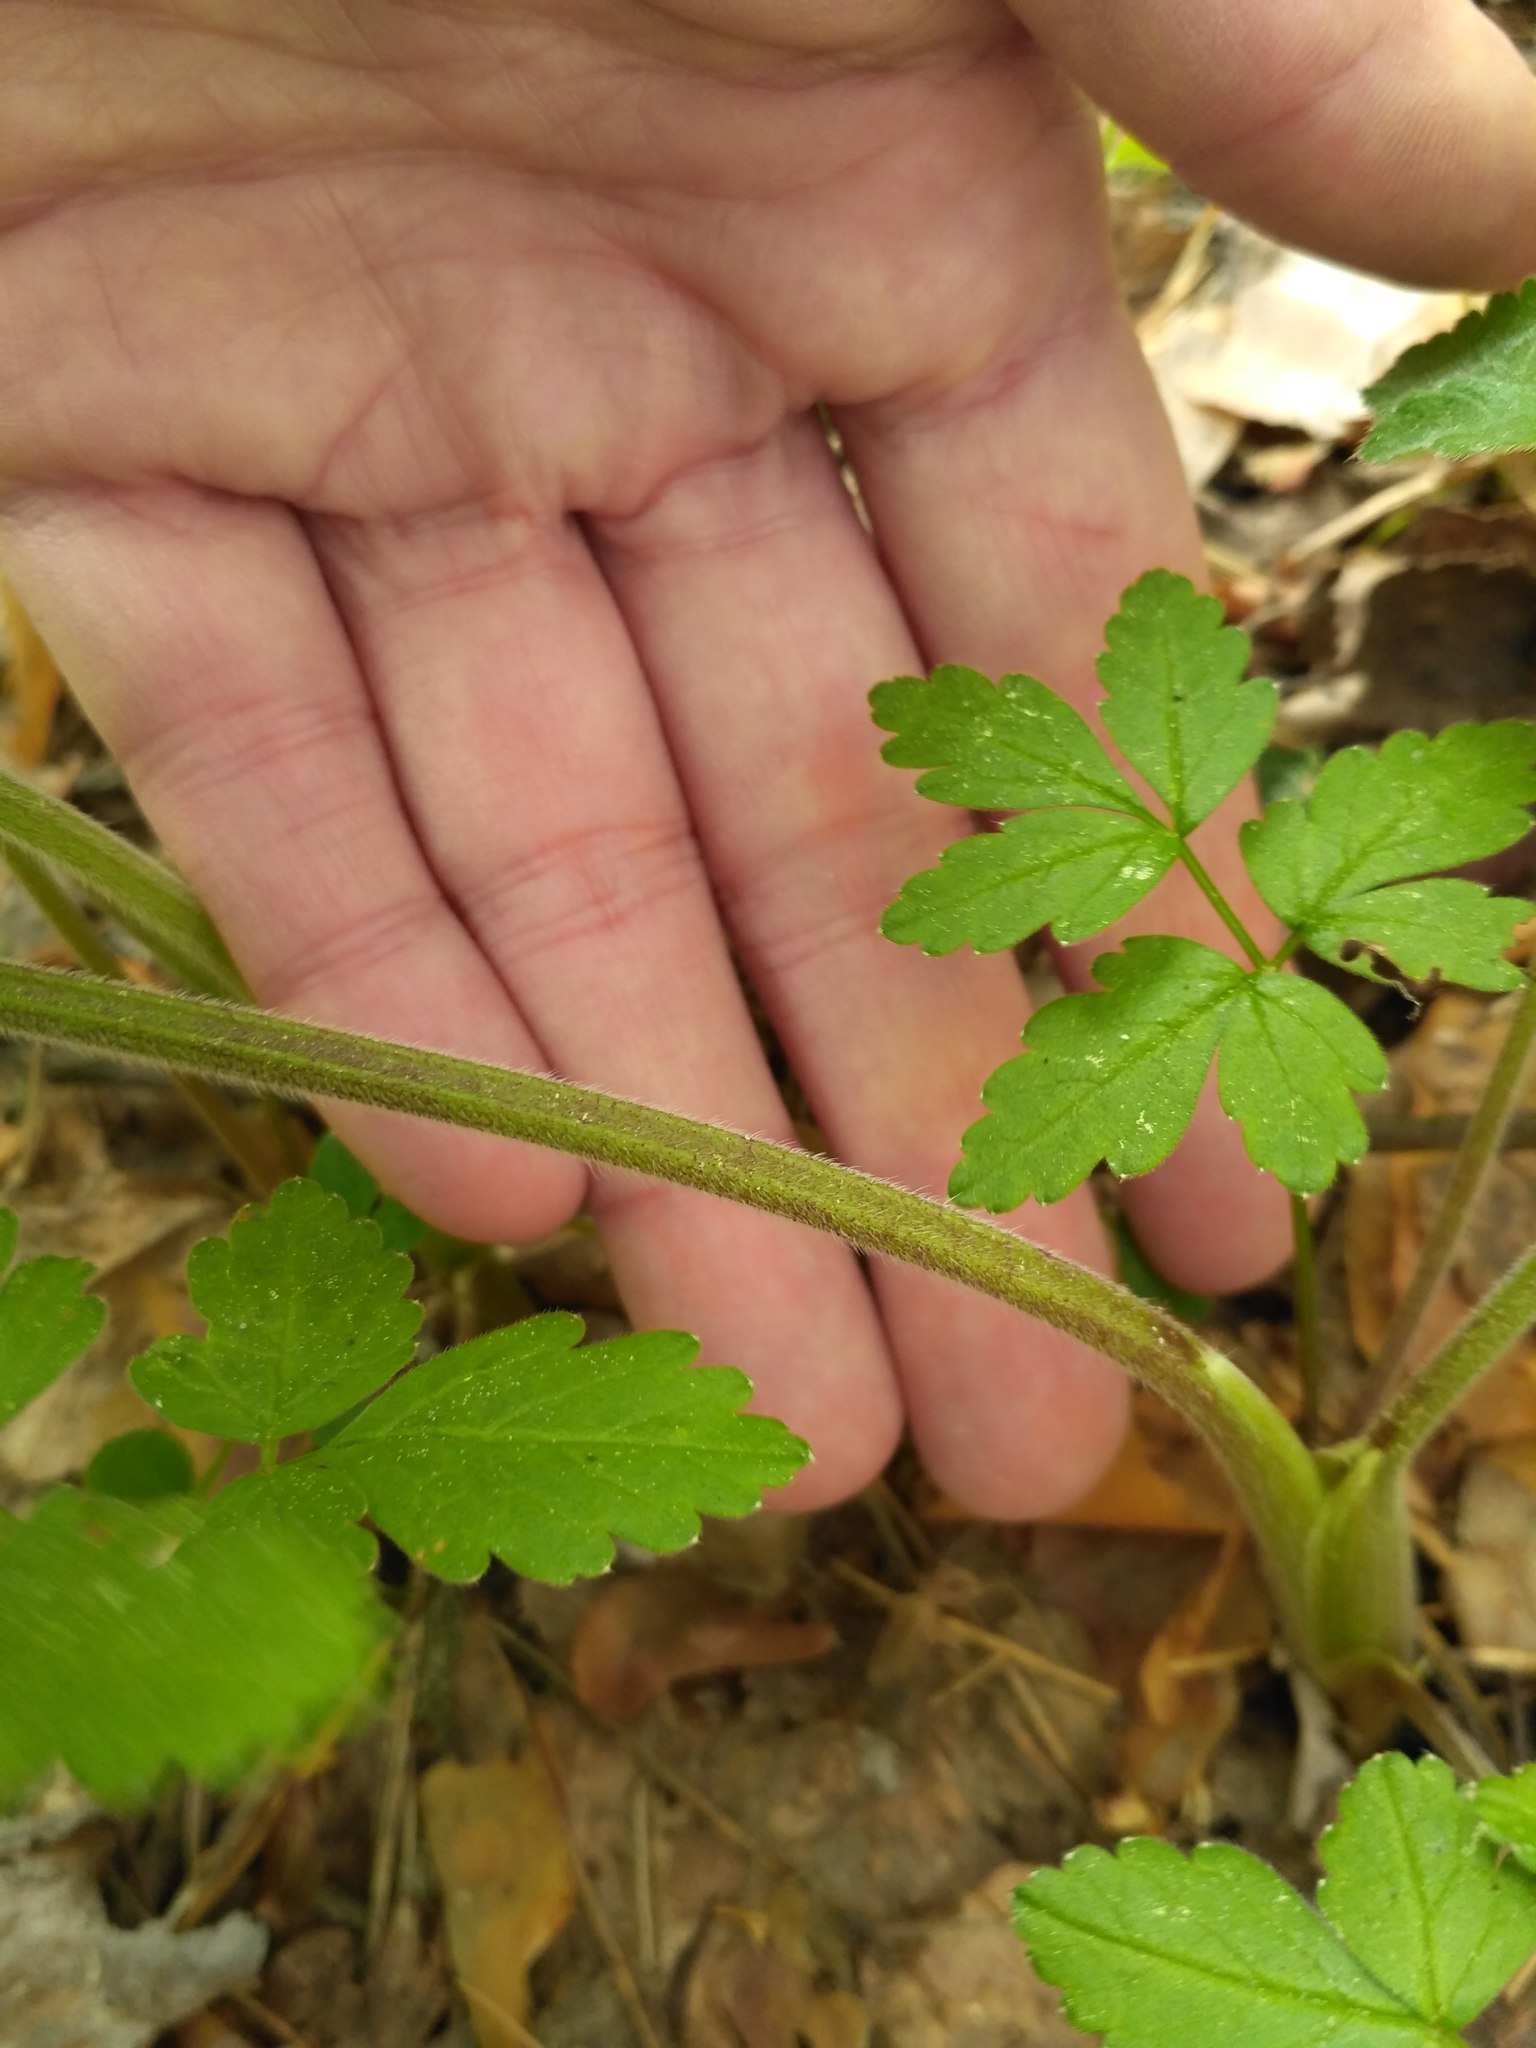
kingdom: Plantae
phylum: Tracheophyta
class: Magnoliopsida
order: Apiales
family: Apiaceae
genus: Chaerophyllum
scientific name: Chaerophyllum aromaticum
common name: Broadleaf chervil
